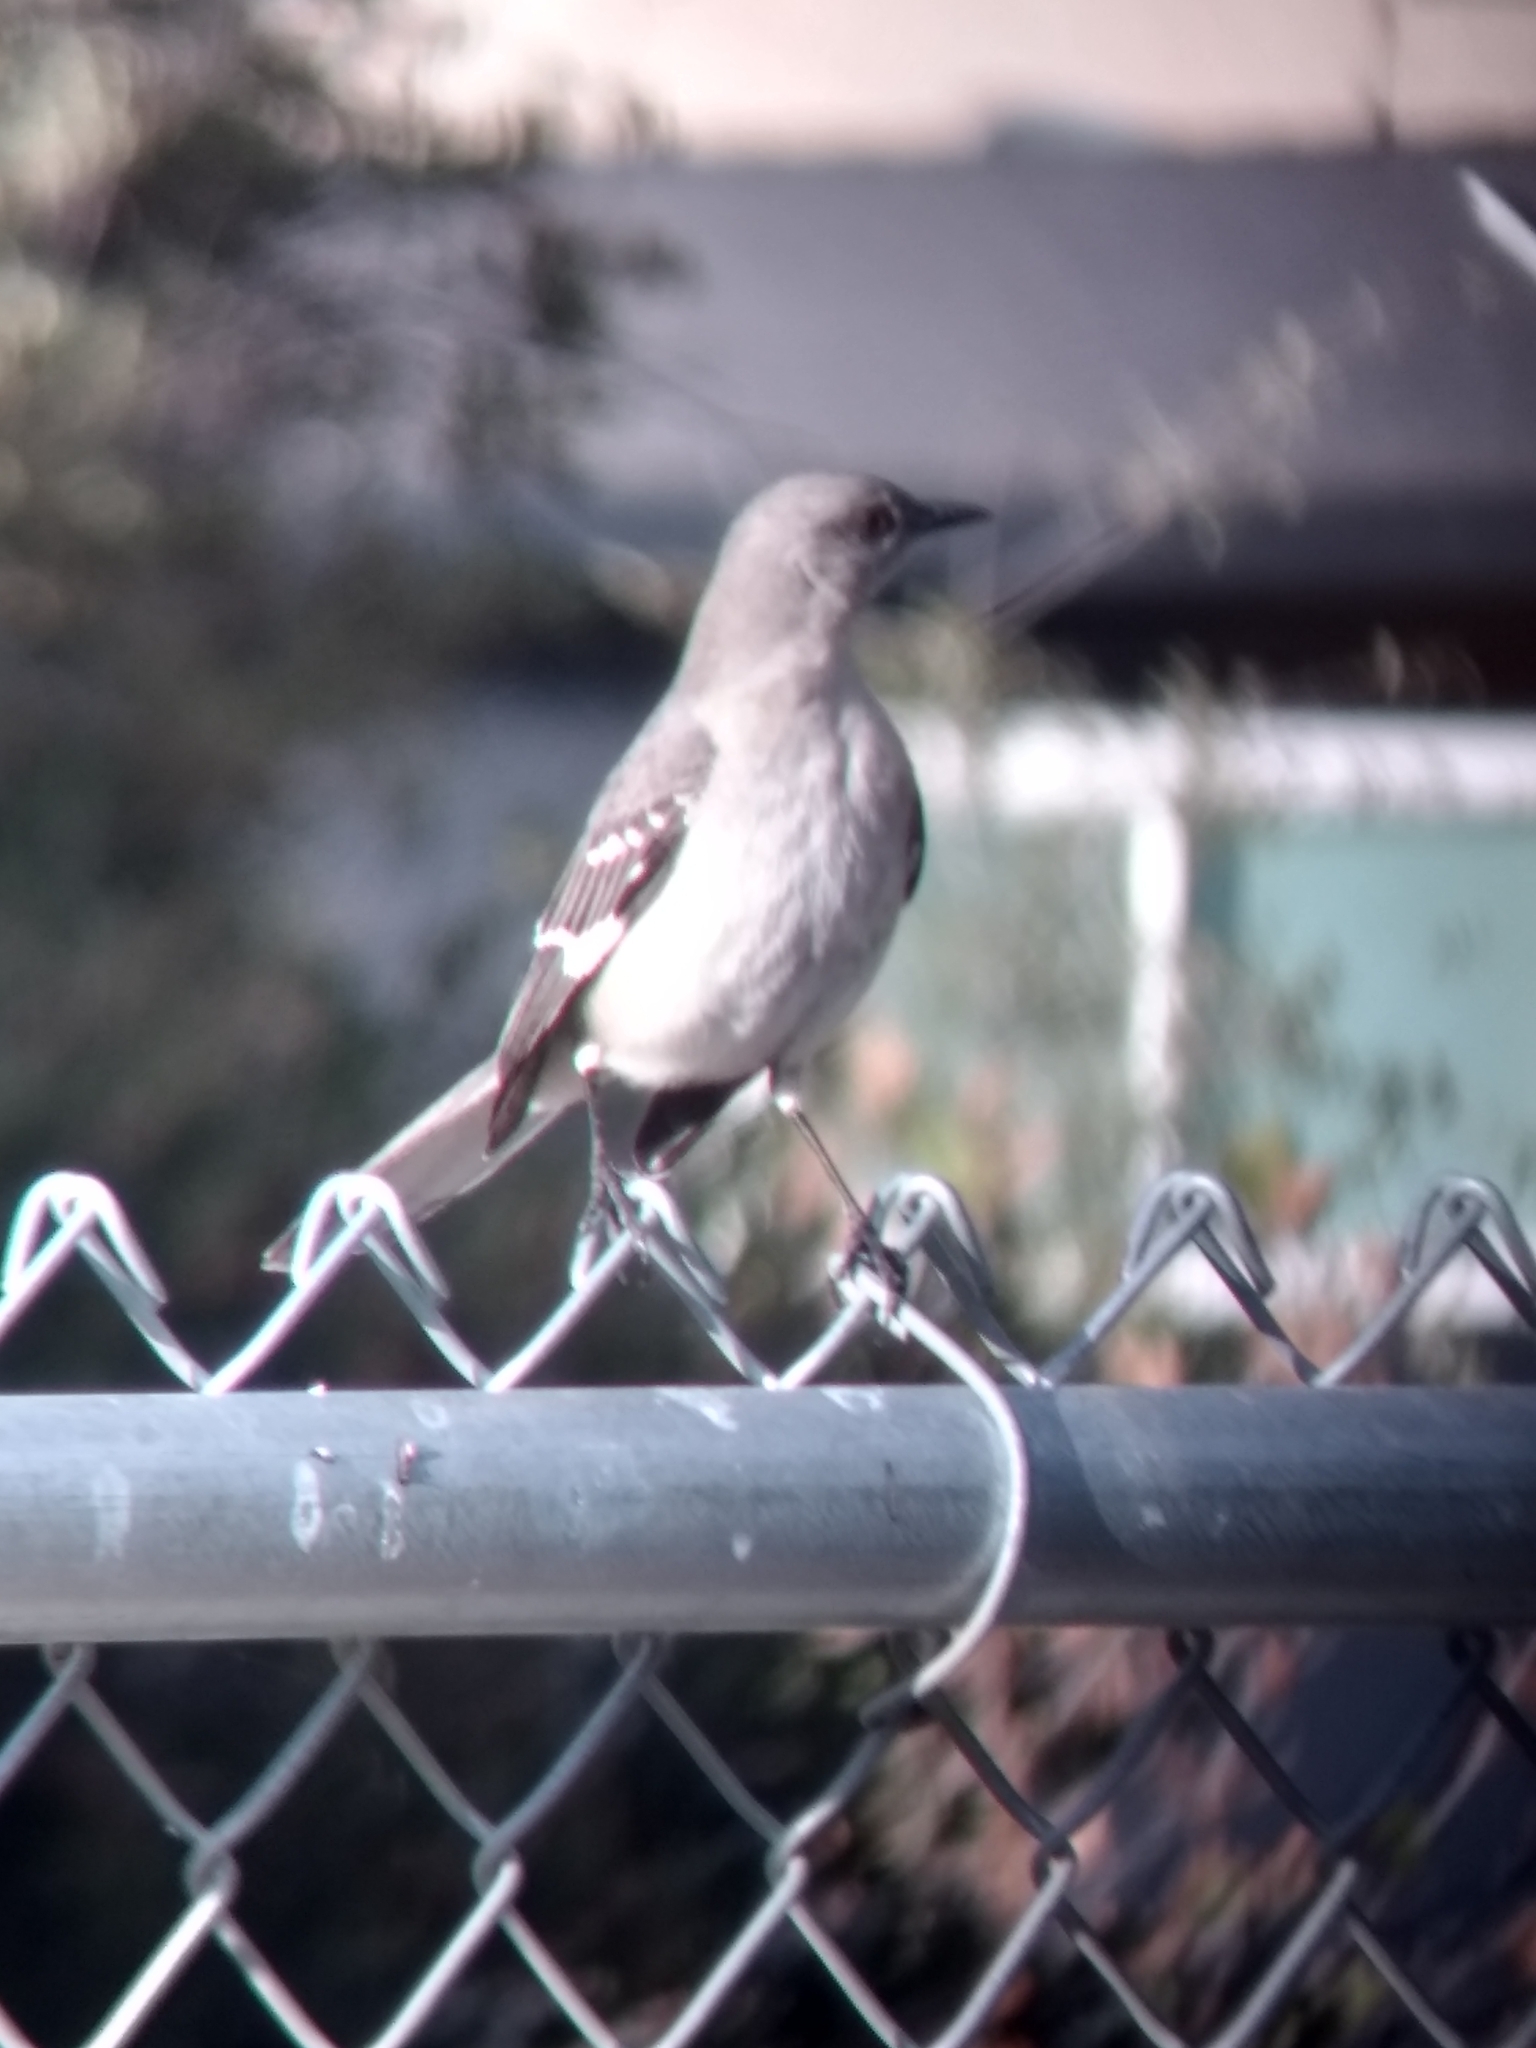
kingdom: Animalia
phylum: Chordata
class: Aves
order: Passeriformes
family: Mimidae
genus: Mimus
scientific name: Mimus polyglottos
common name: Northern mockingbird
